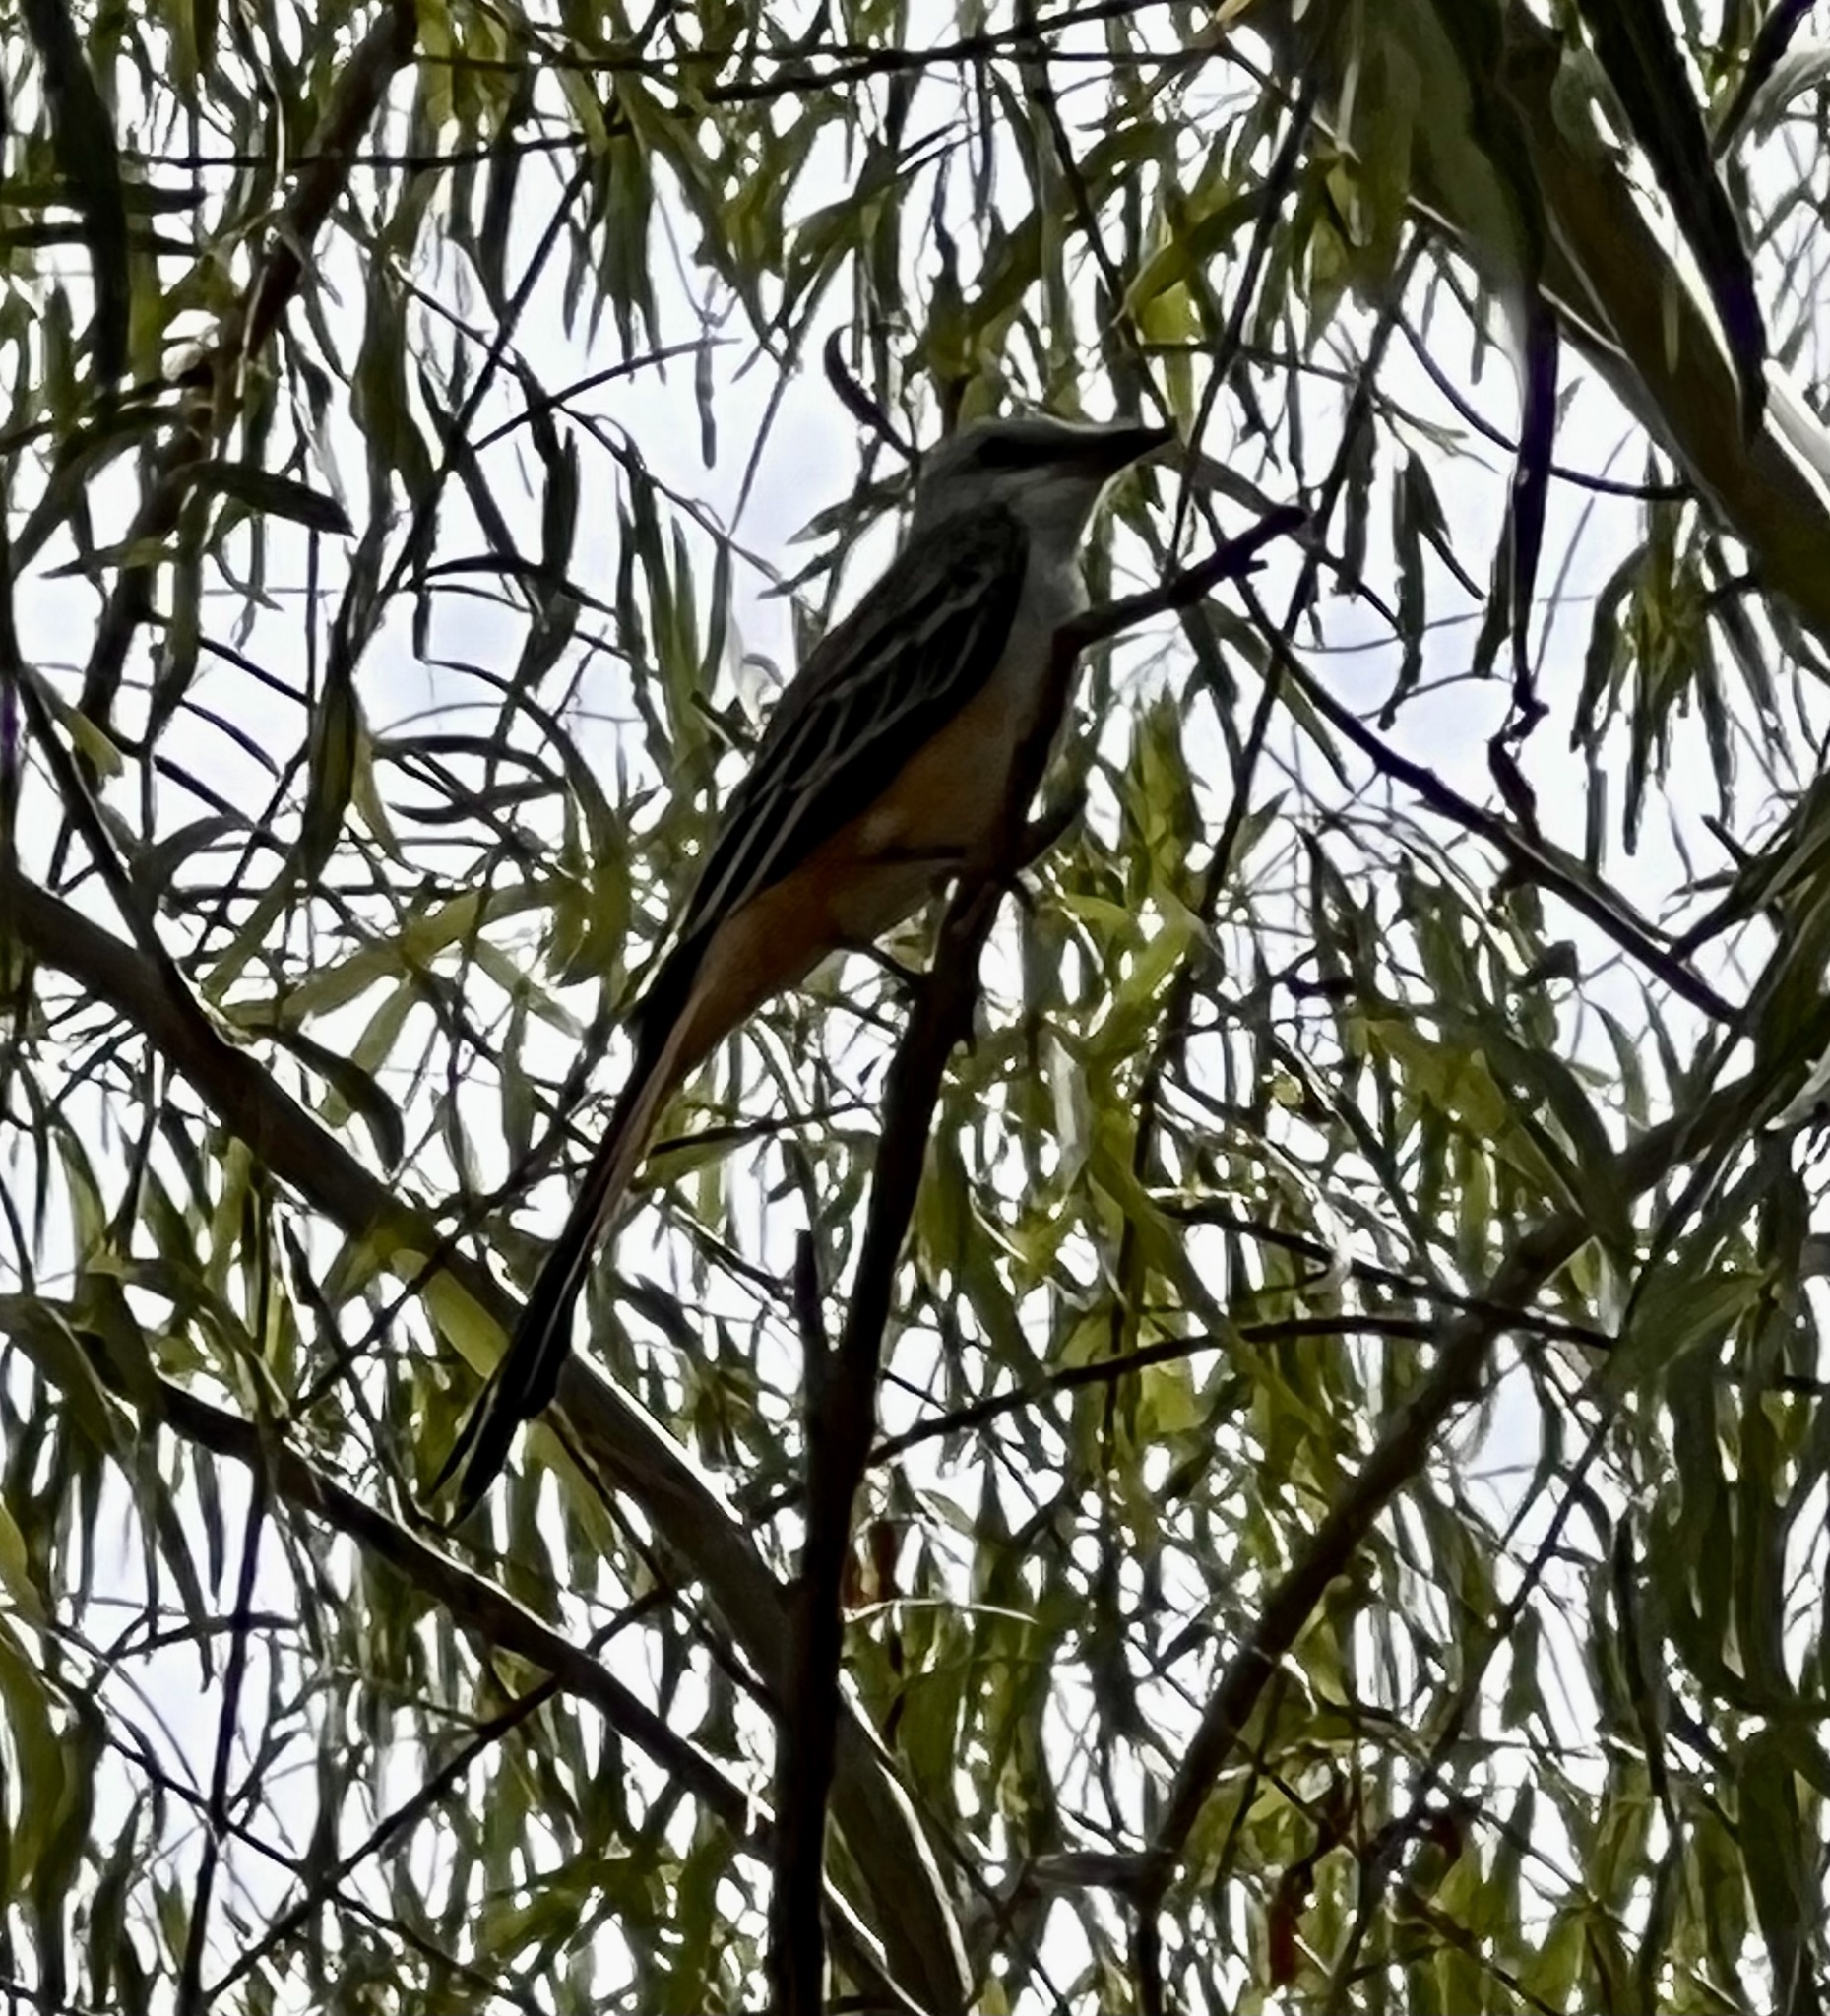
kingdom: Animalia
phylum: Chordata
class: Aves
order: Passeriformes
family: Tyrannidae
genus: Tyrannus
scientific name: Tyrannus forficatus
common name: Scissor-tailed flycatcher
